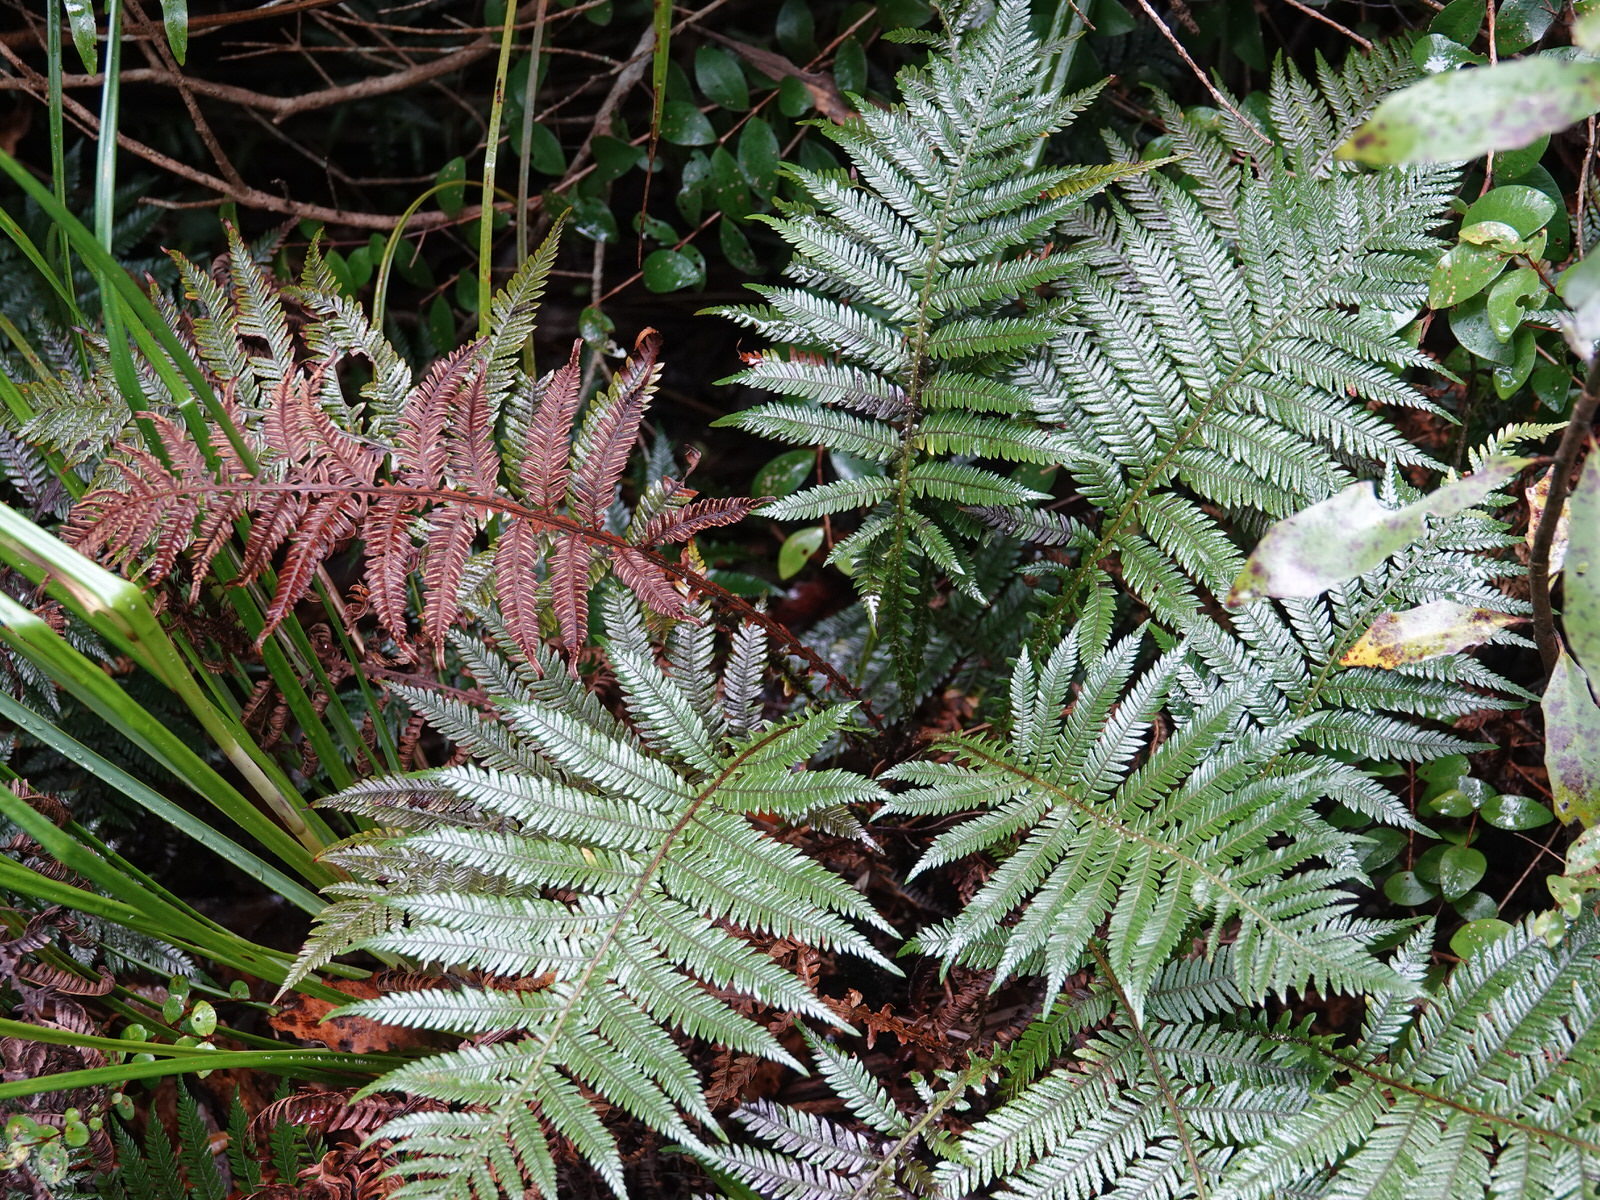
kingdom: Plantae
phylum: Tracheophyta
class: Polypodiopsida
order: Polypodiales
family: Blechnaceae
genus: Diploblechnum
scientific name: Diploblechnum fraseri
